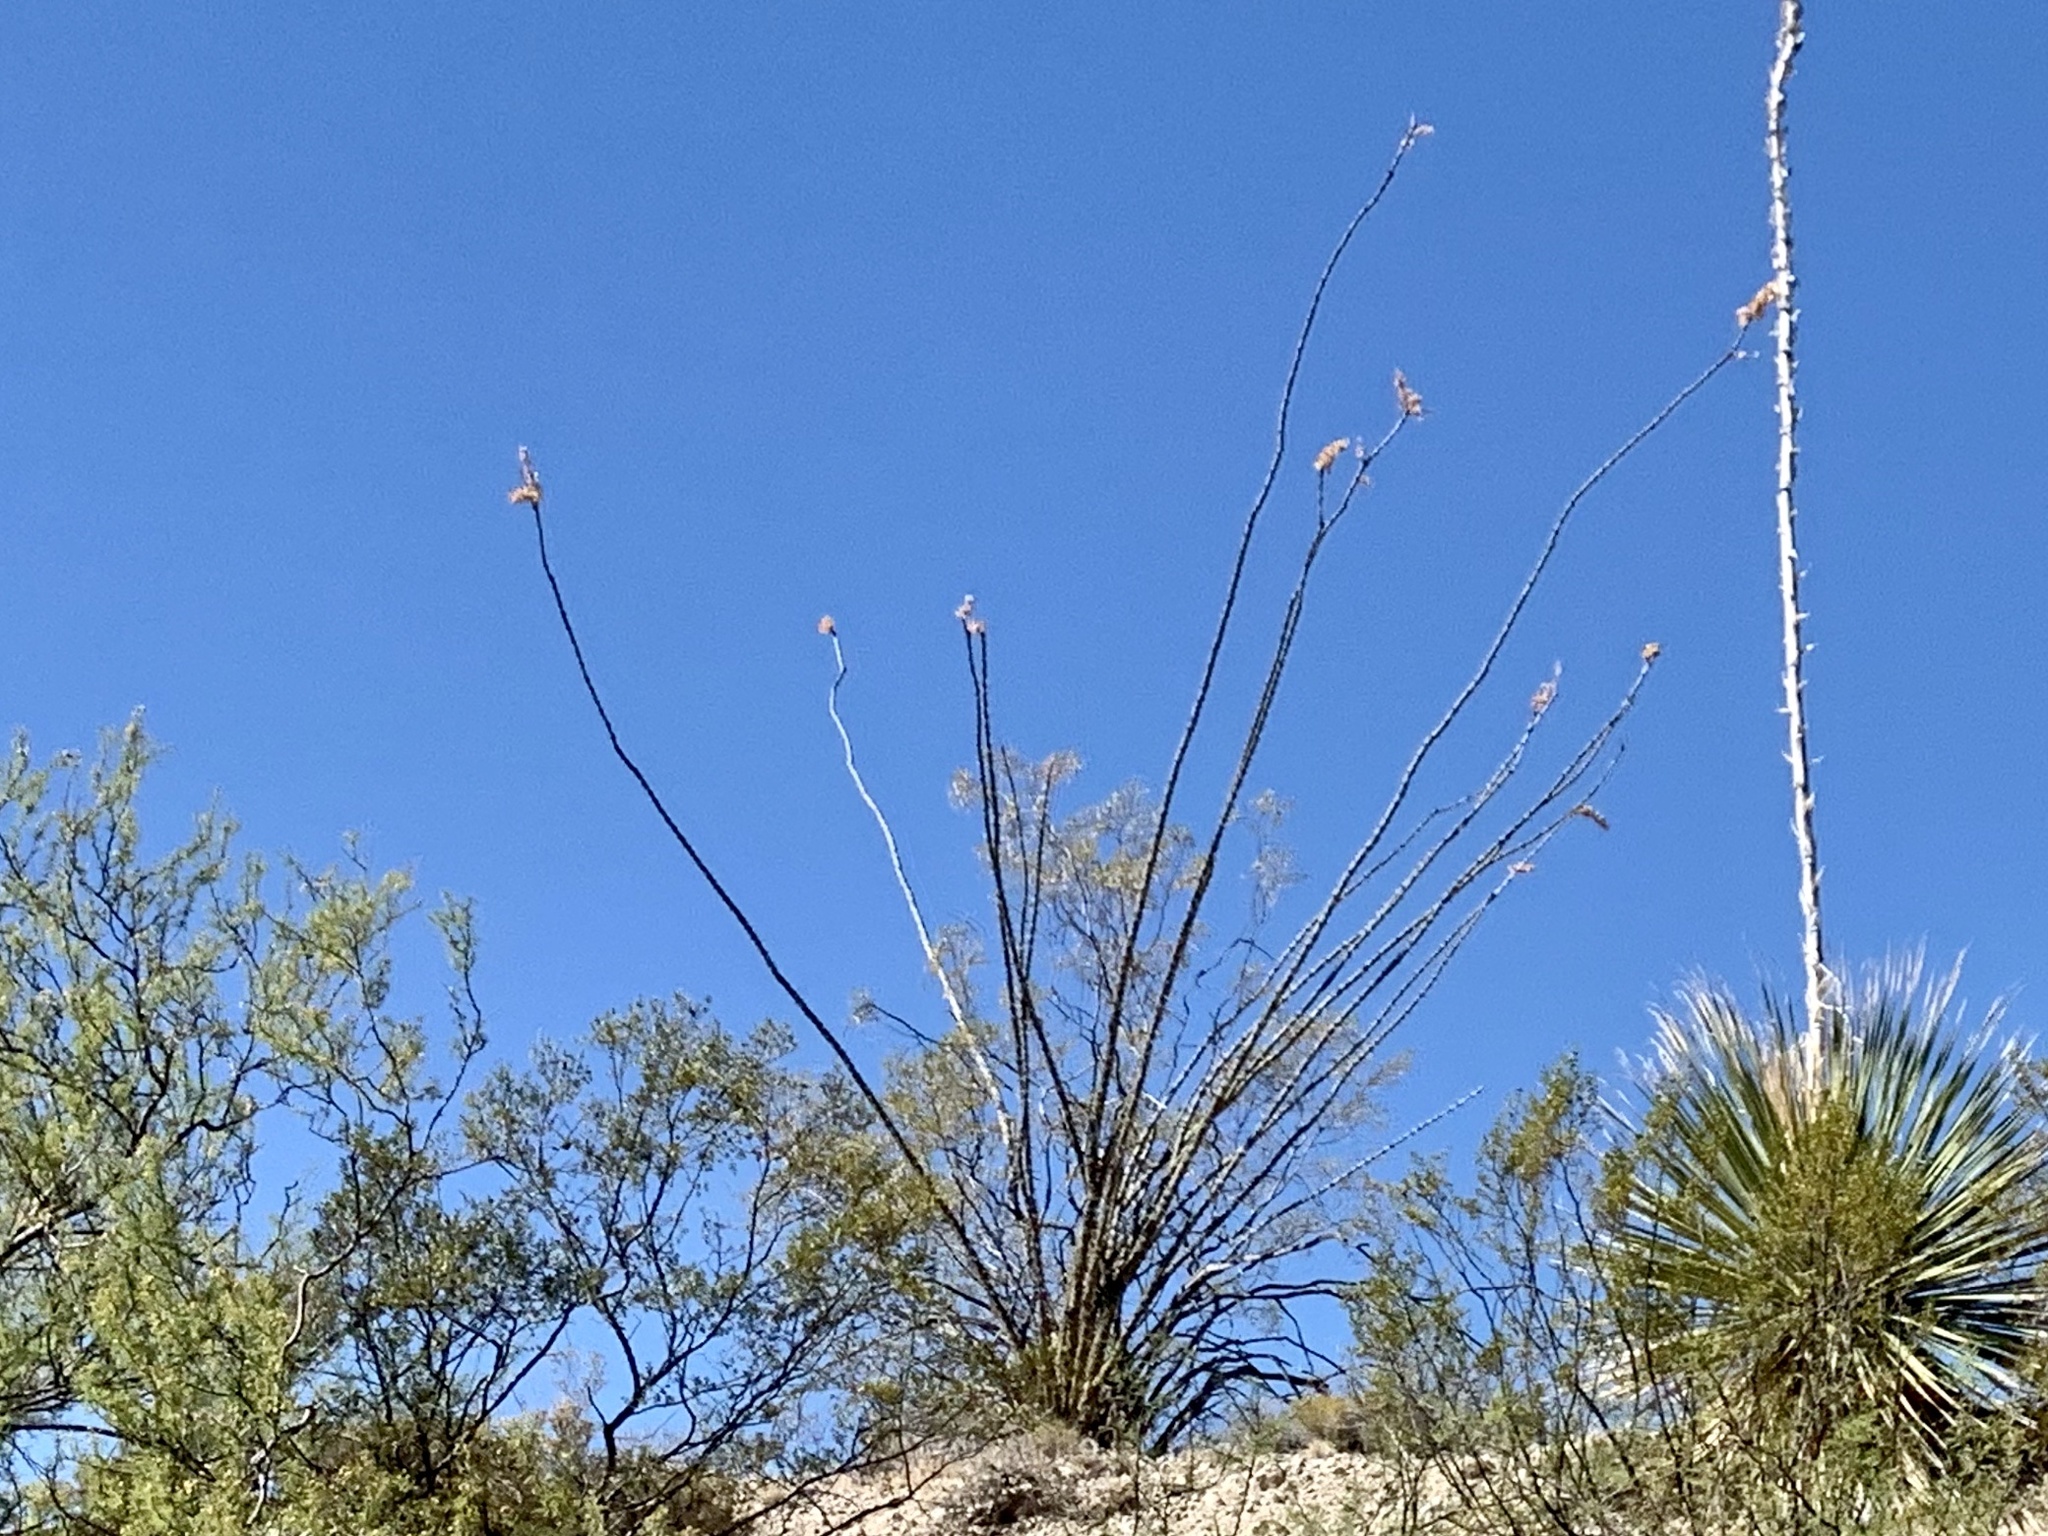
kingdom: Plantae
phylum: Tracheophyta
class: Magnoliopsida
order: Ericales
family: Fouquieriaceae
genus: Fouquieria
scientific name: Fouquieria splendens
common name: Vine-cactus
